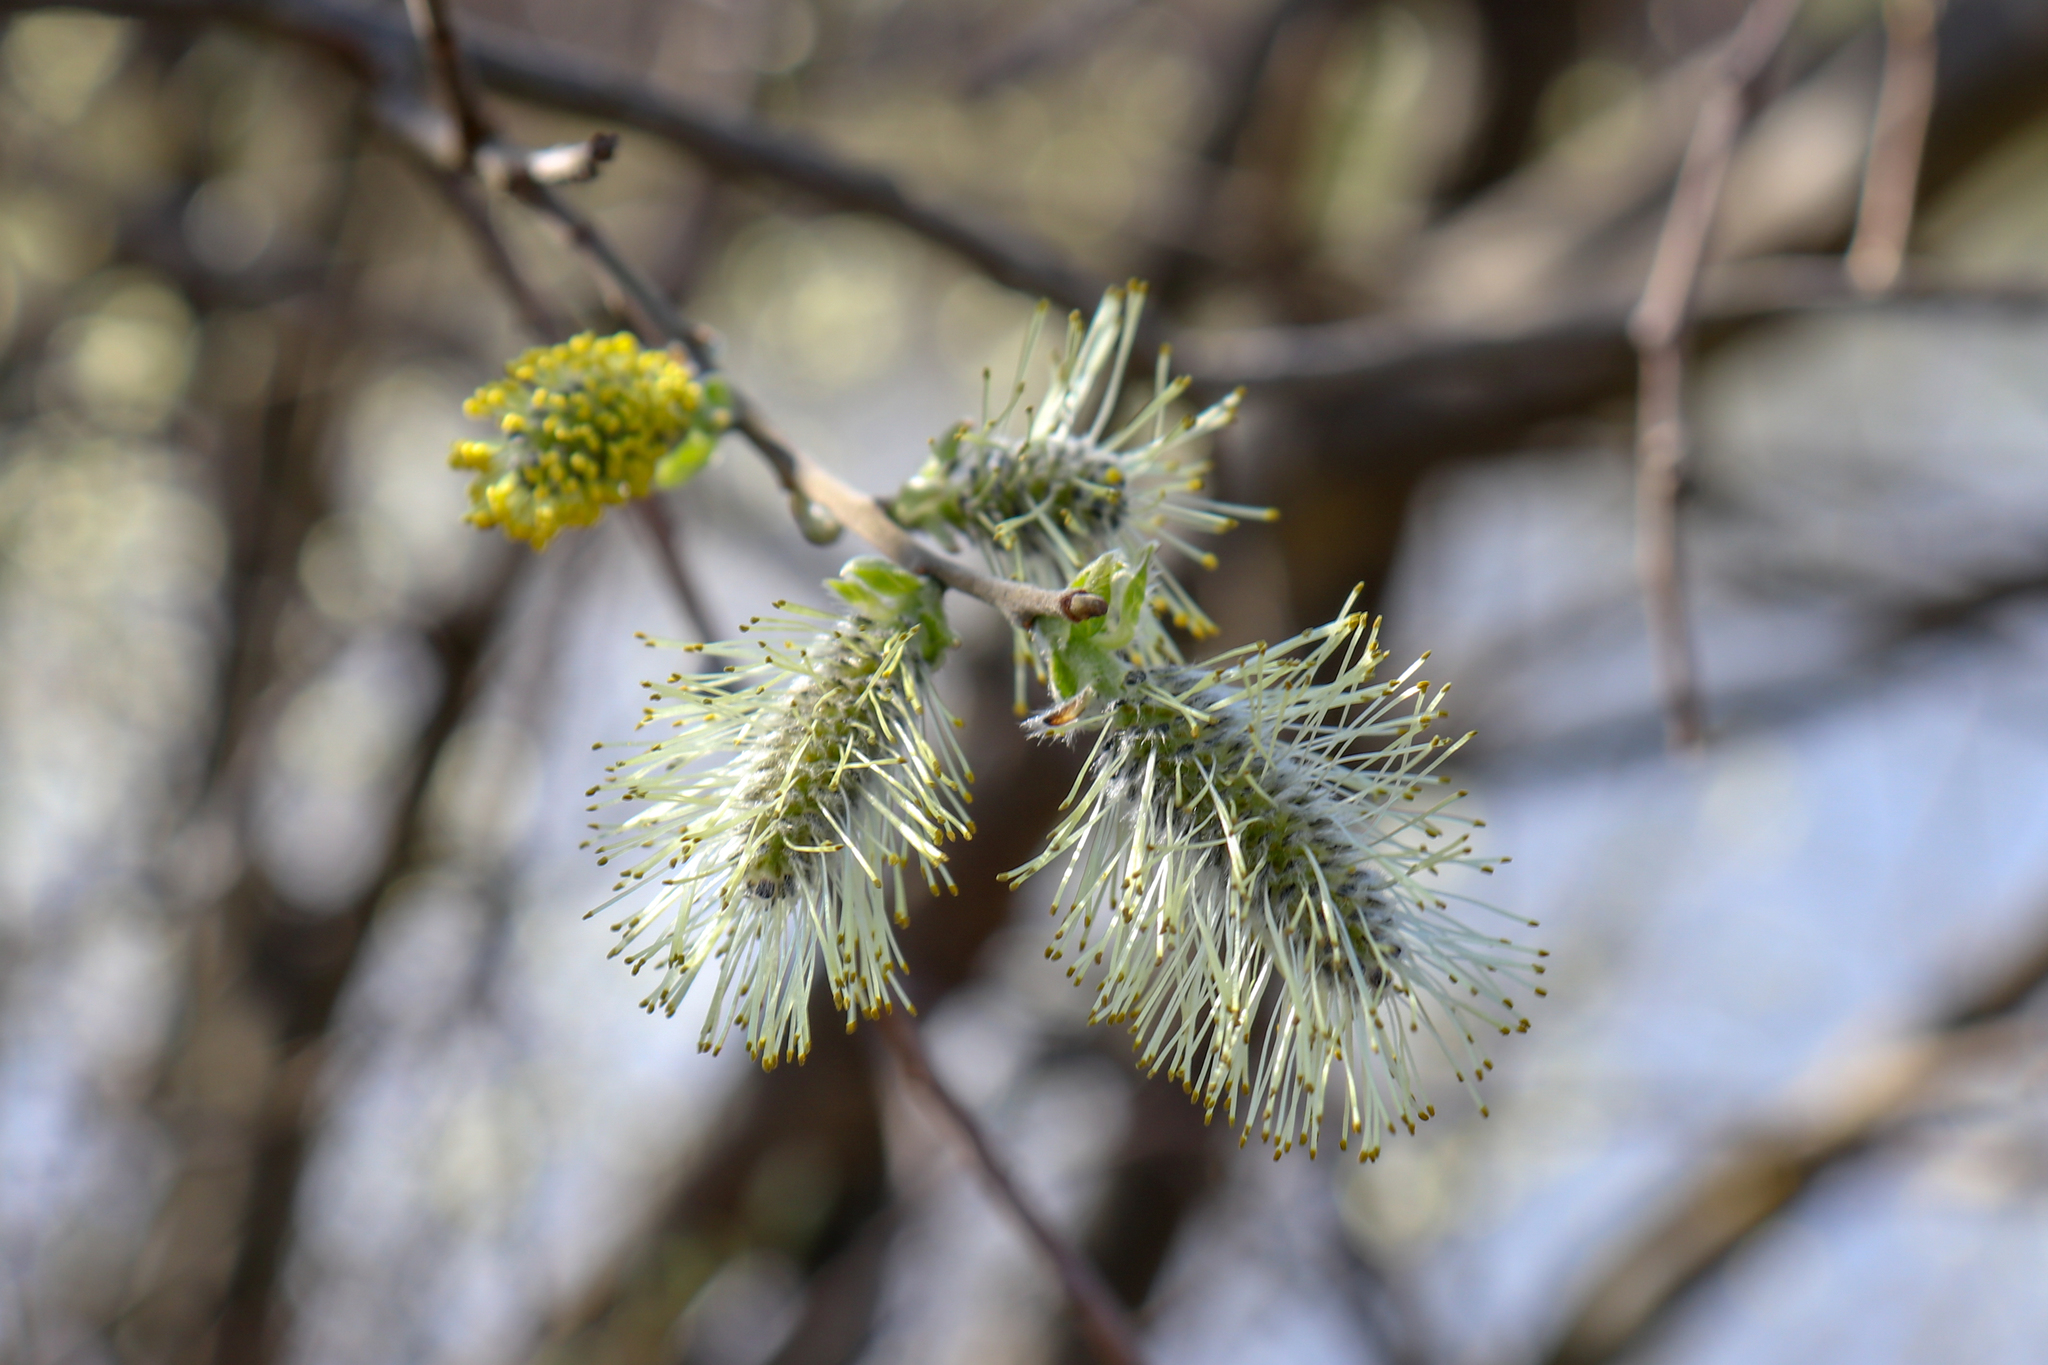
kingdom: Plantae
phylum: Tracheophyta
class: Magnoliopsida
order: Malpighiales
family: Salicaceae
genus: Salix
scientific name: Salix caprea
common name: Goat willow
